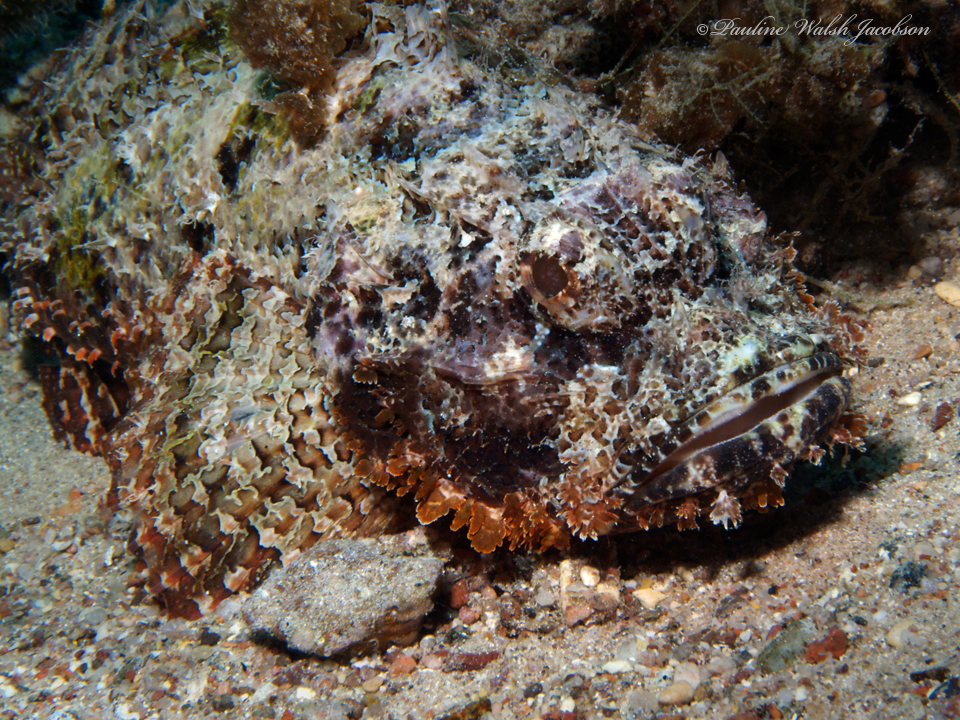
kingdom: Animalia
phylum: Chordata
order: Scorpaeniformes
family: Scorpaenidae
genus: Scorpaenopsis
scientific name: Scorpaenopsis barbata
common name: Bearded scorpionfish
